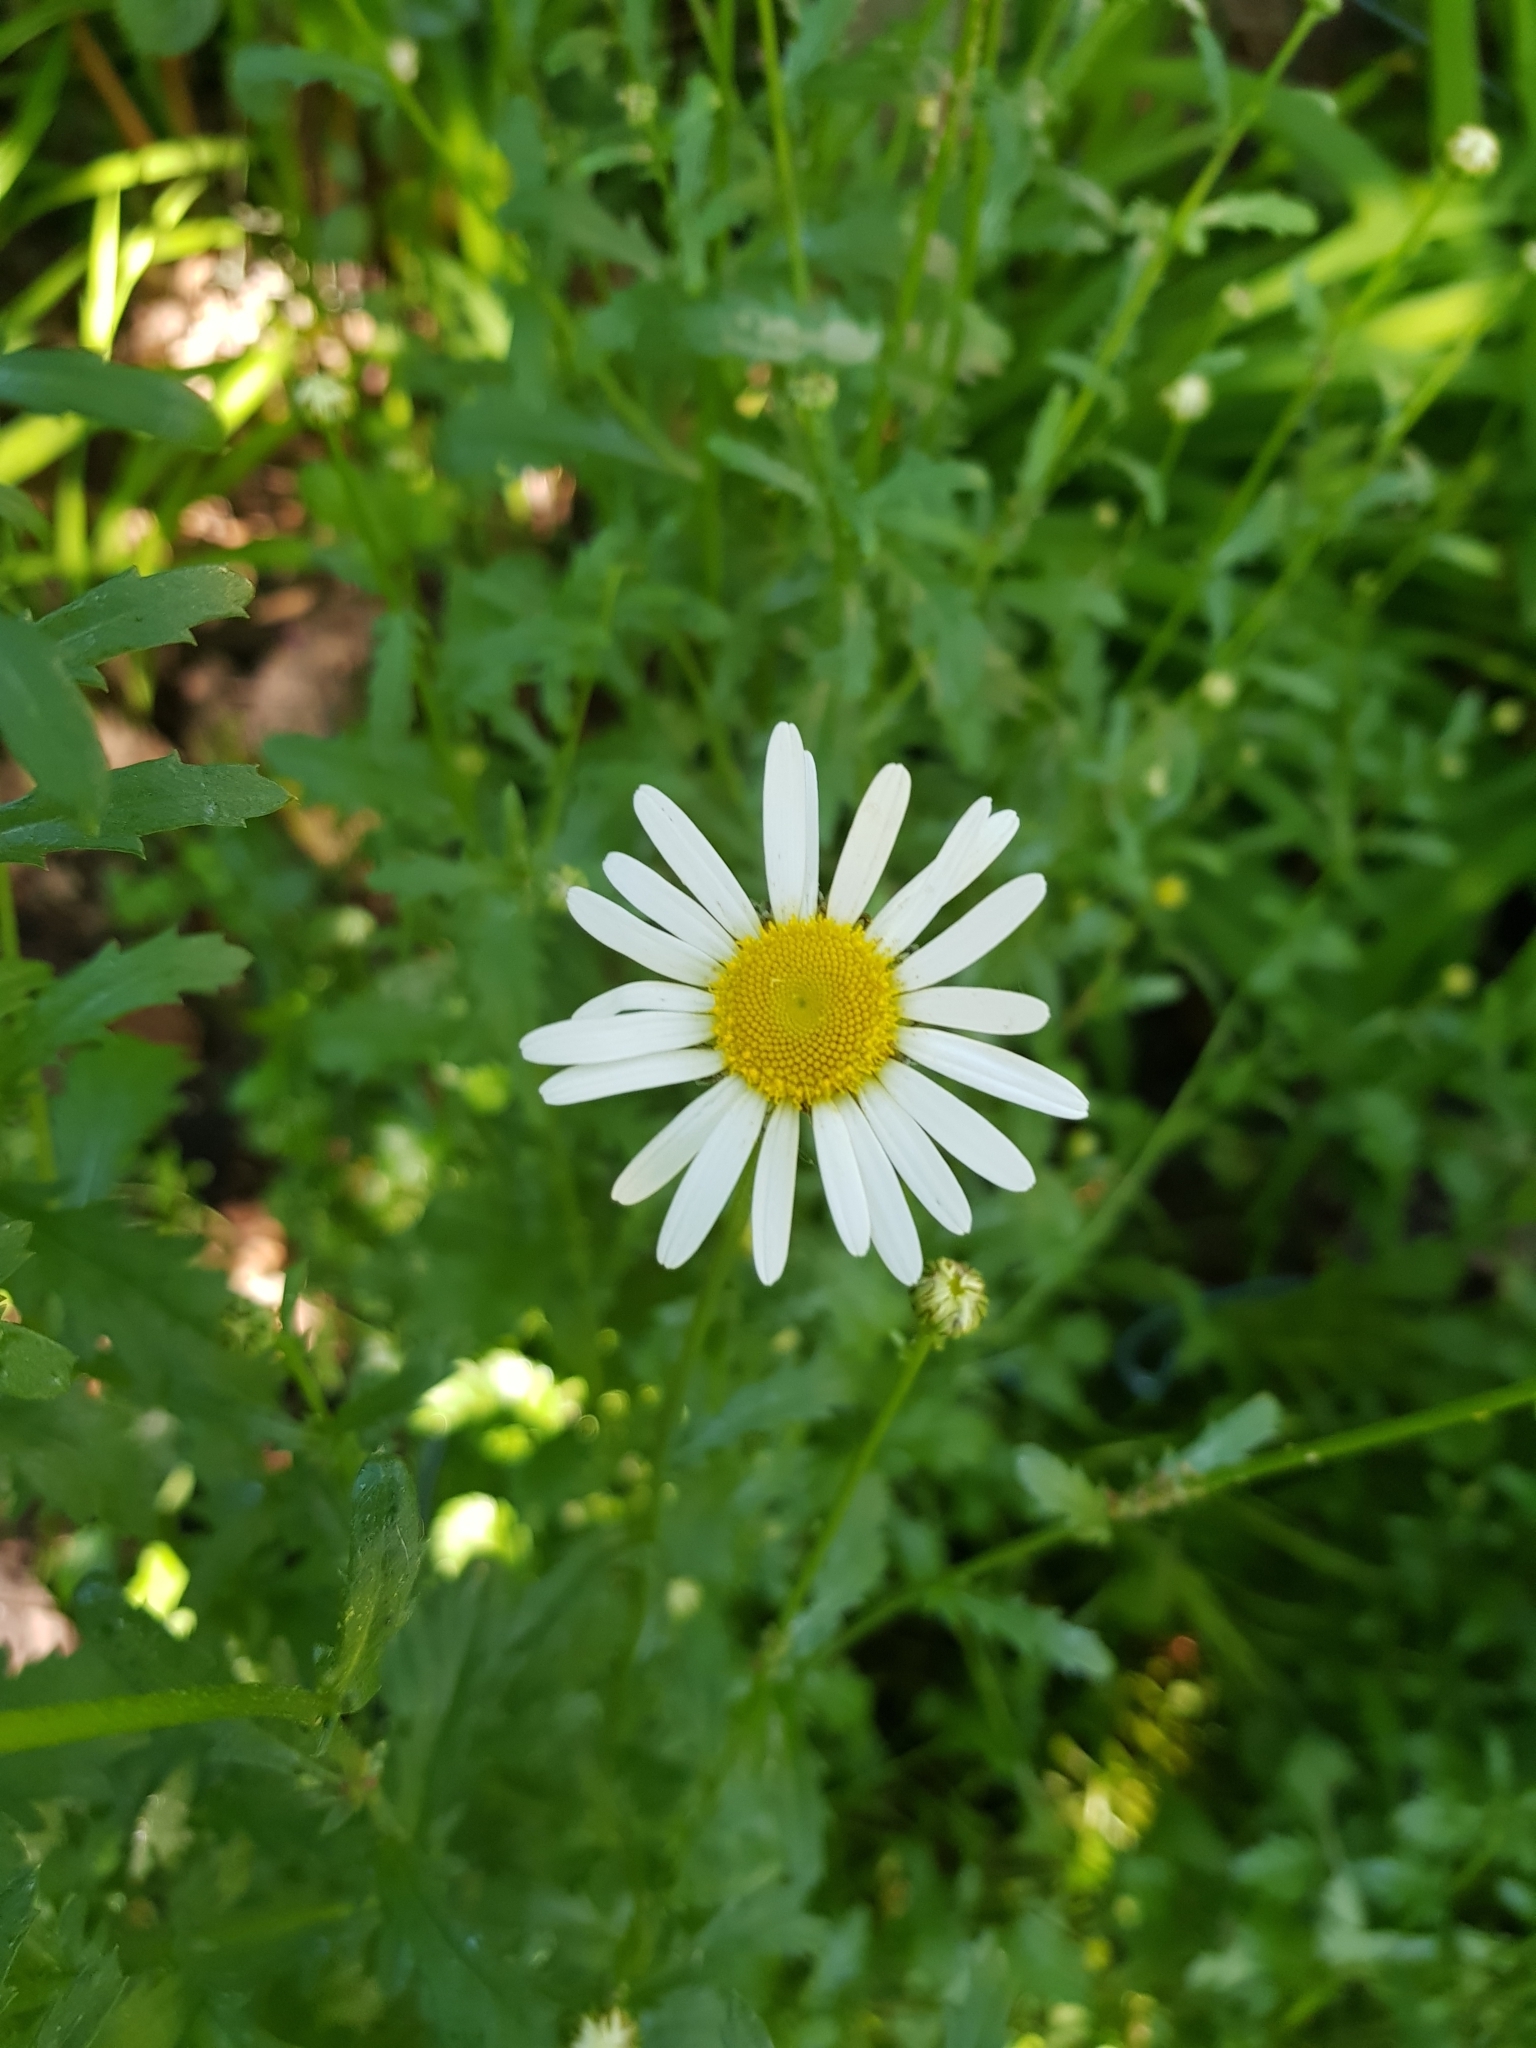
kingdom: Plantae
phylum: Tracheophyta
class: Magnoliopsida
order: Asterales
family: Asteraceae
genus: Leucanthemum
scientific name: Leucanthemum vulgare
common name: Oxeye daisy
